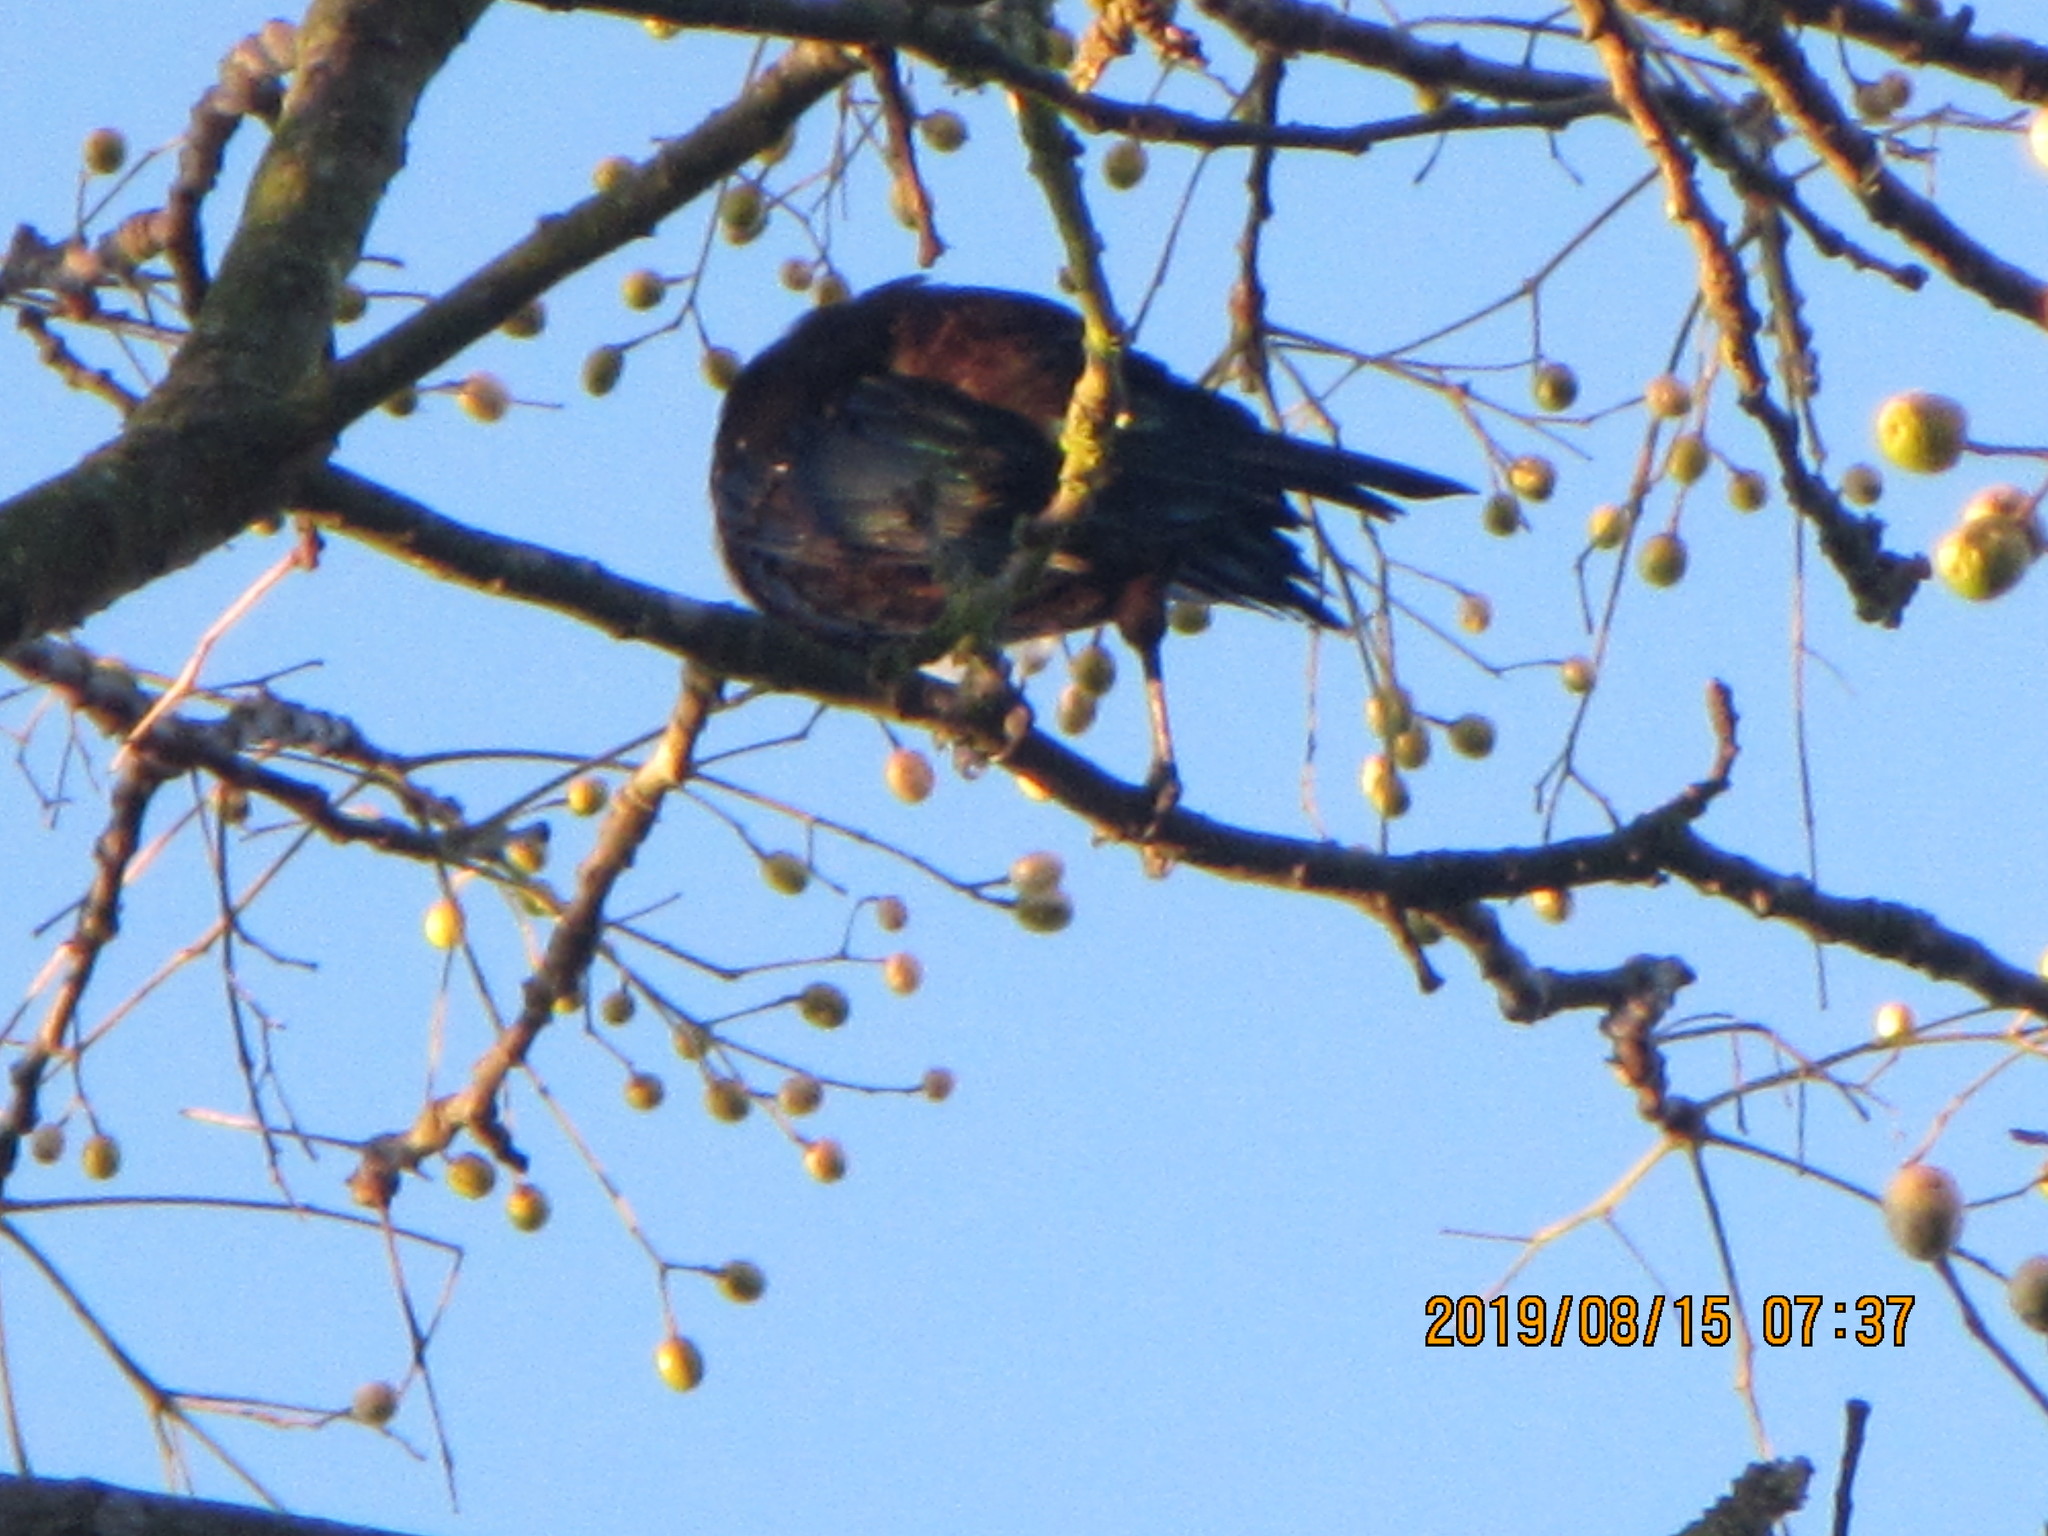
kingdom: Animalia
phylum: Chordata
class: Aves
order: Passeriformes
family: Meliphagidae
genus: Prosthemadera
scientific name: Prosthemadera novaeseelandiae
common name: Tui
